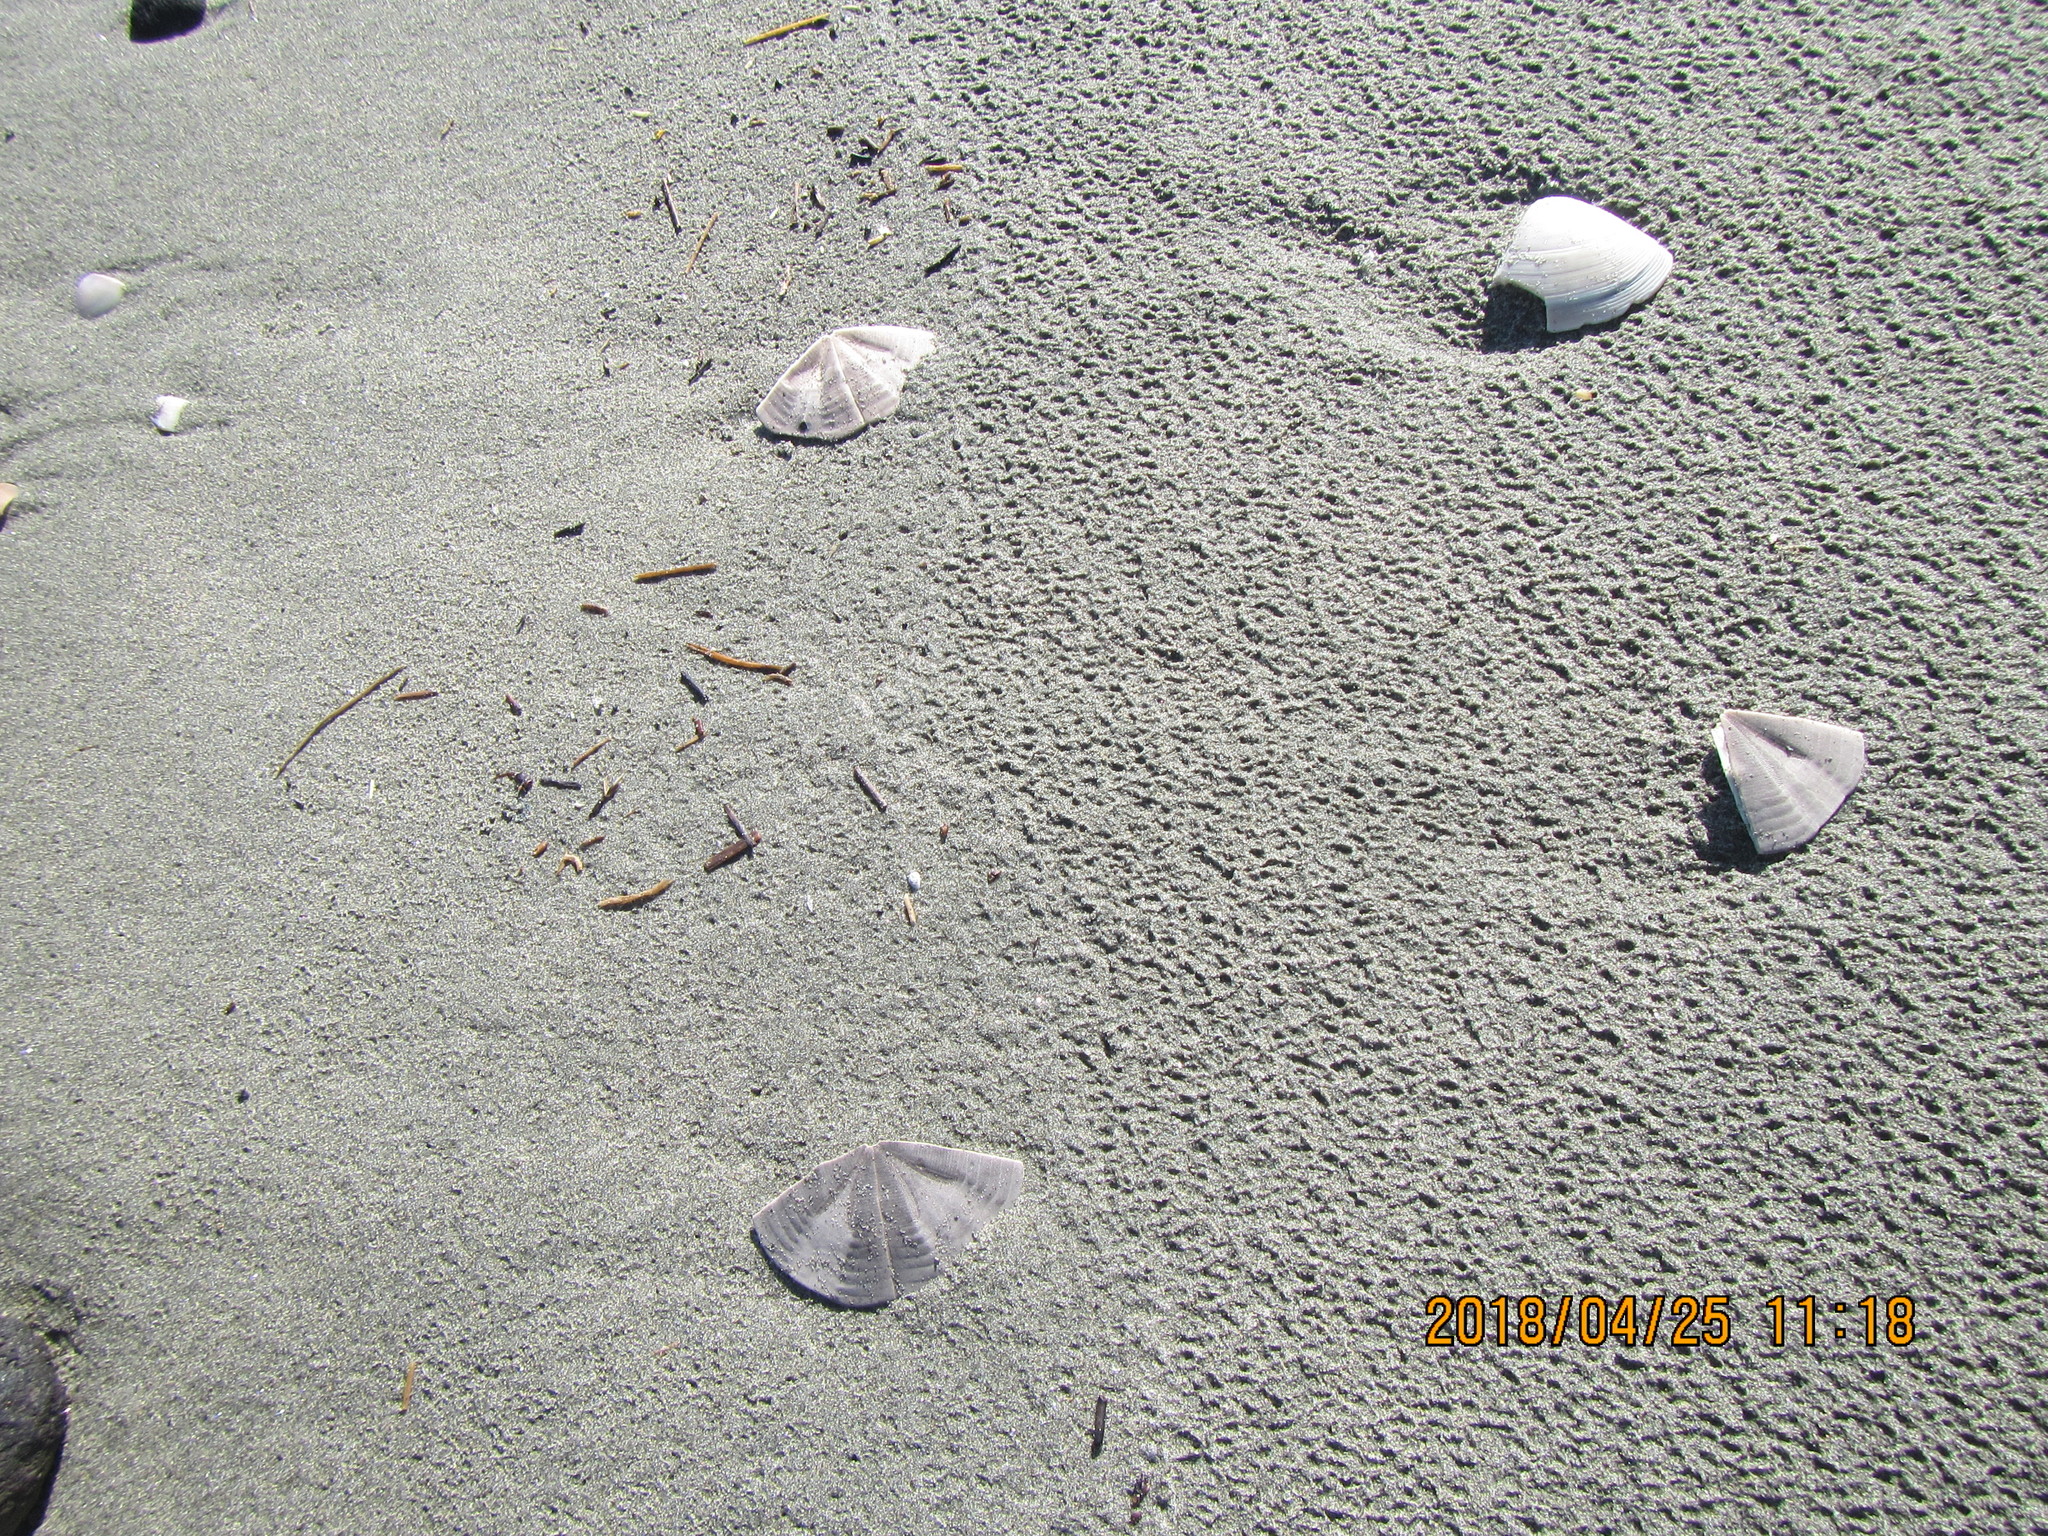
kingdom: Animalia
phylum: Echinodermata
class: Echinoidea
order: Clypeasteroida
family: Clypeasteridae
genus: Fellaster
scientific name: Fellaster zelandiae
